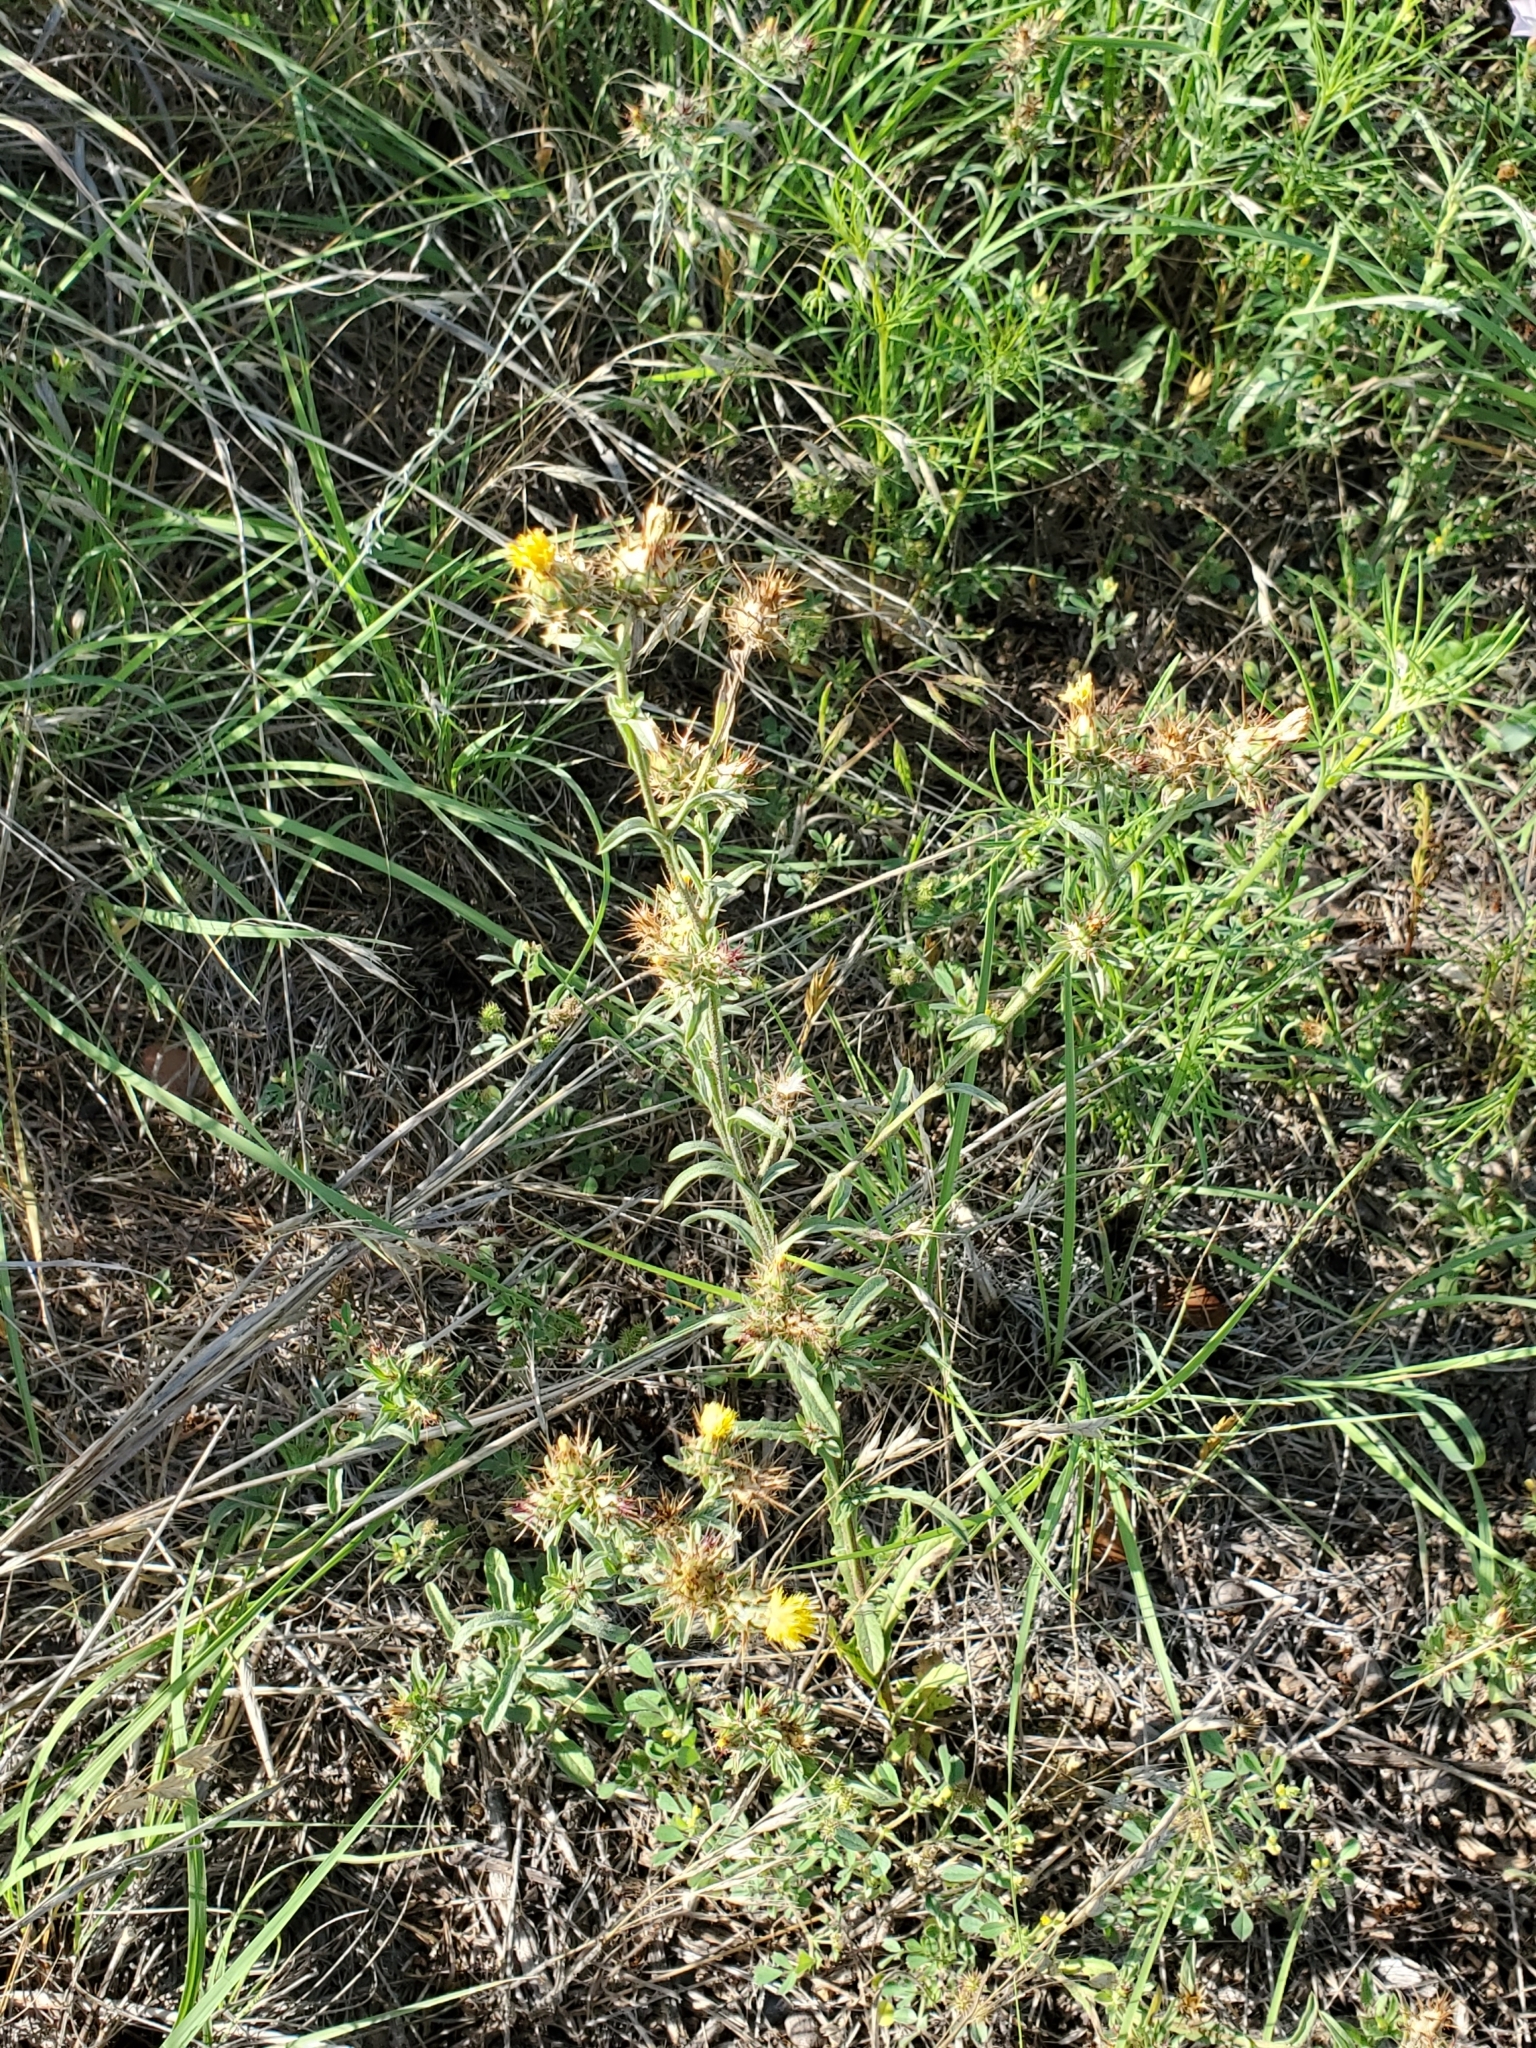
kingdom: Plantae
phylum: Tracheophyta
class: Magnoliopsida
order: Asterales
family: Asteraceae
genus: Centaurea
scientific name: Centaurea melitensis
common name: Maltese star-thistle
